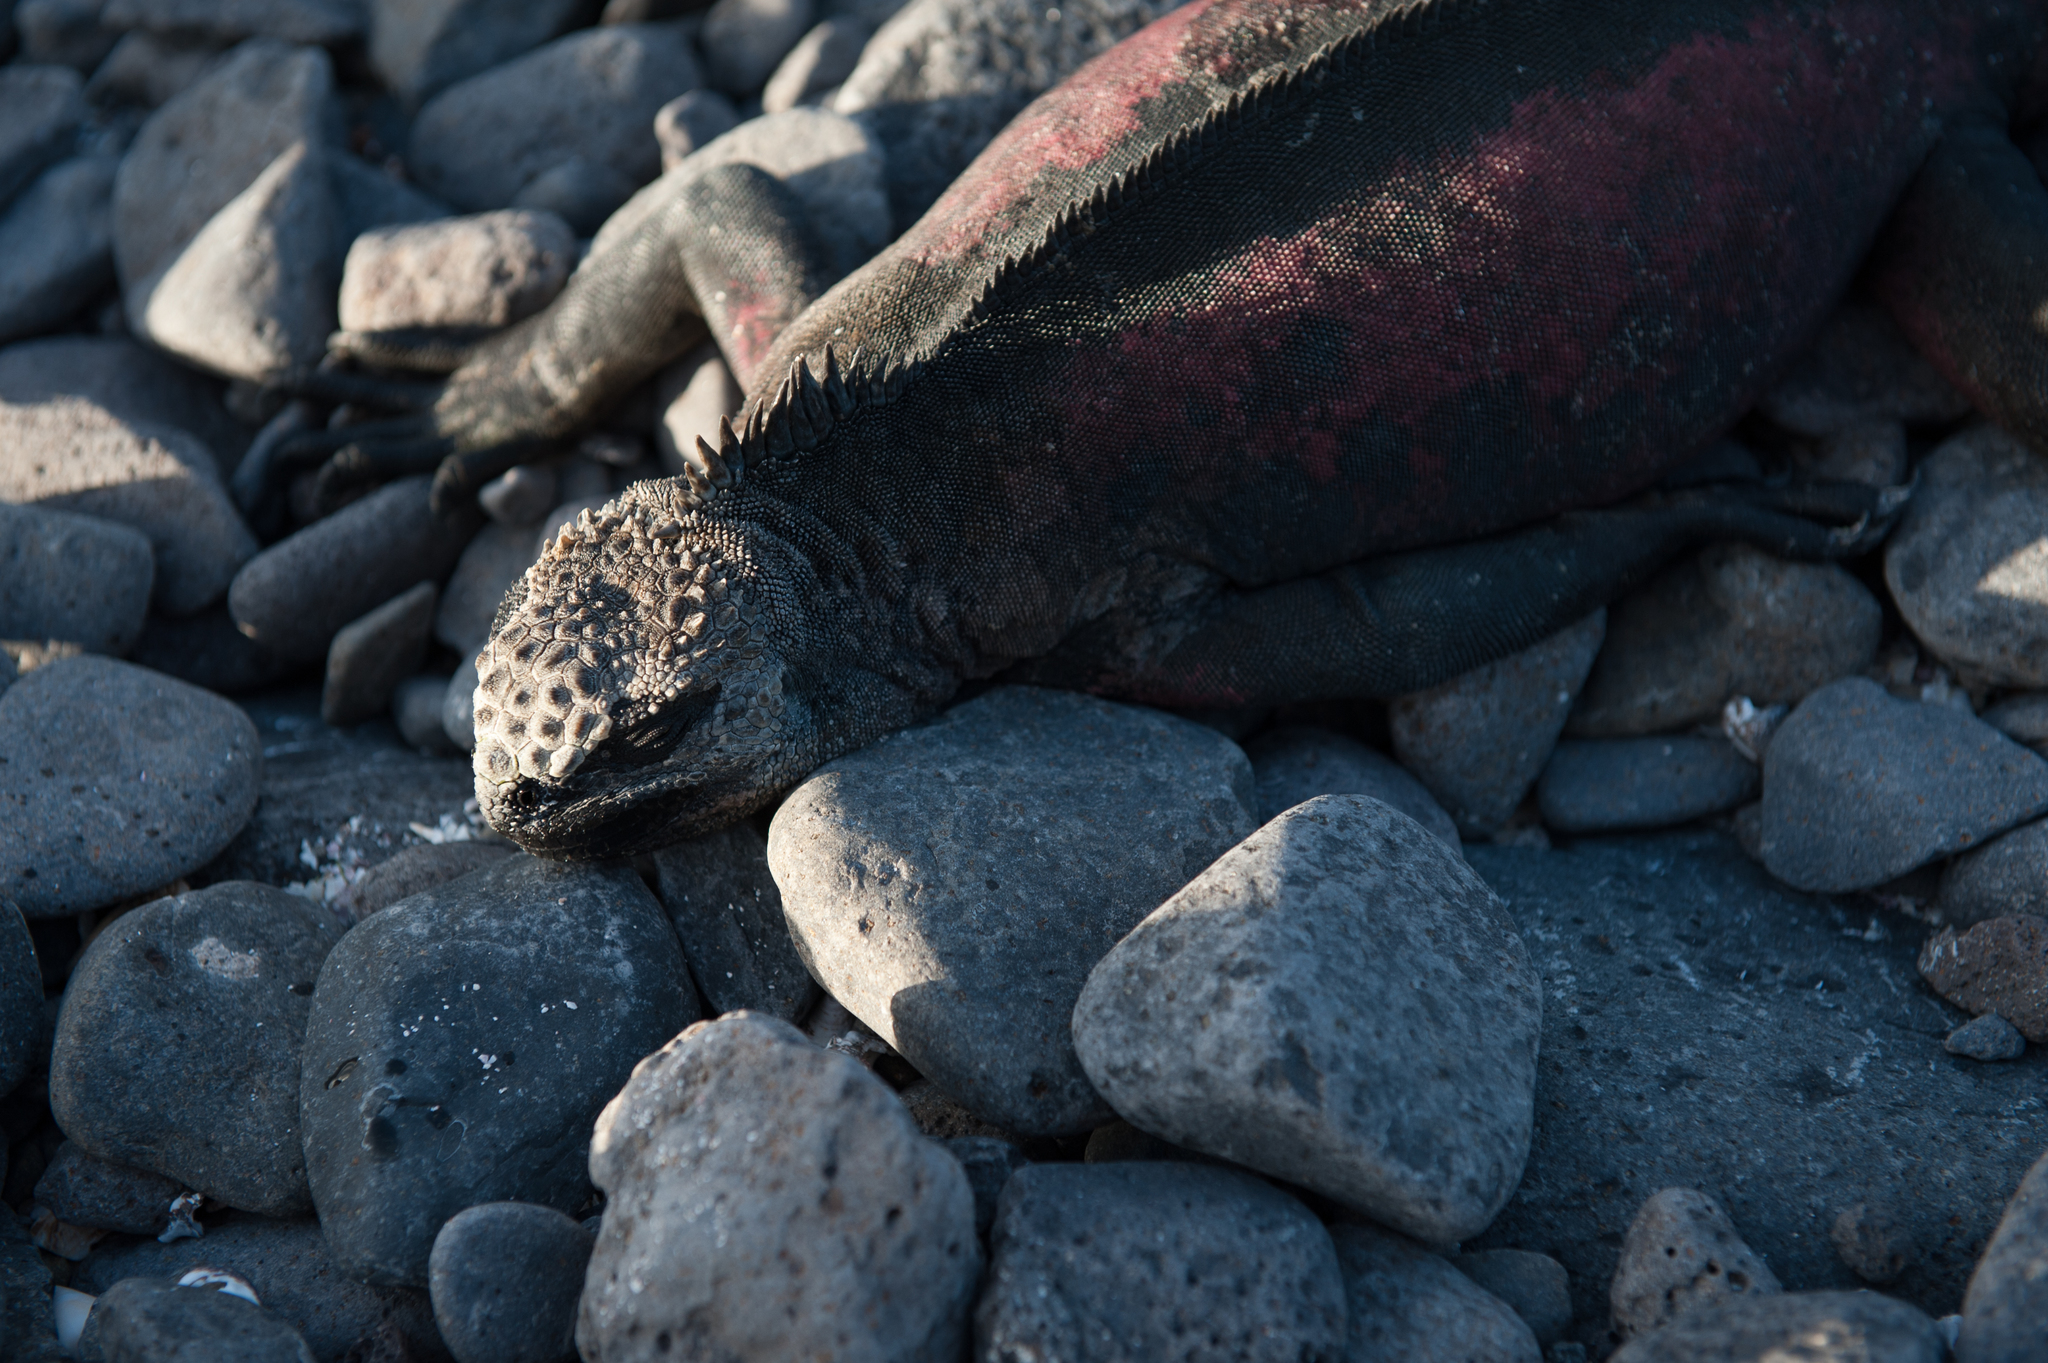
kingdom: Animalia
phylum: Chordata
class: Squamata
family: Iguanidae
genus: Amblyrhynchus
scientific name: Amblyrhynchus cristatus
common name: Marine iguana
